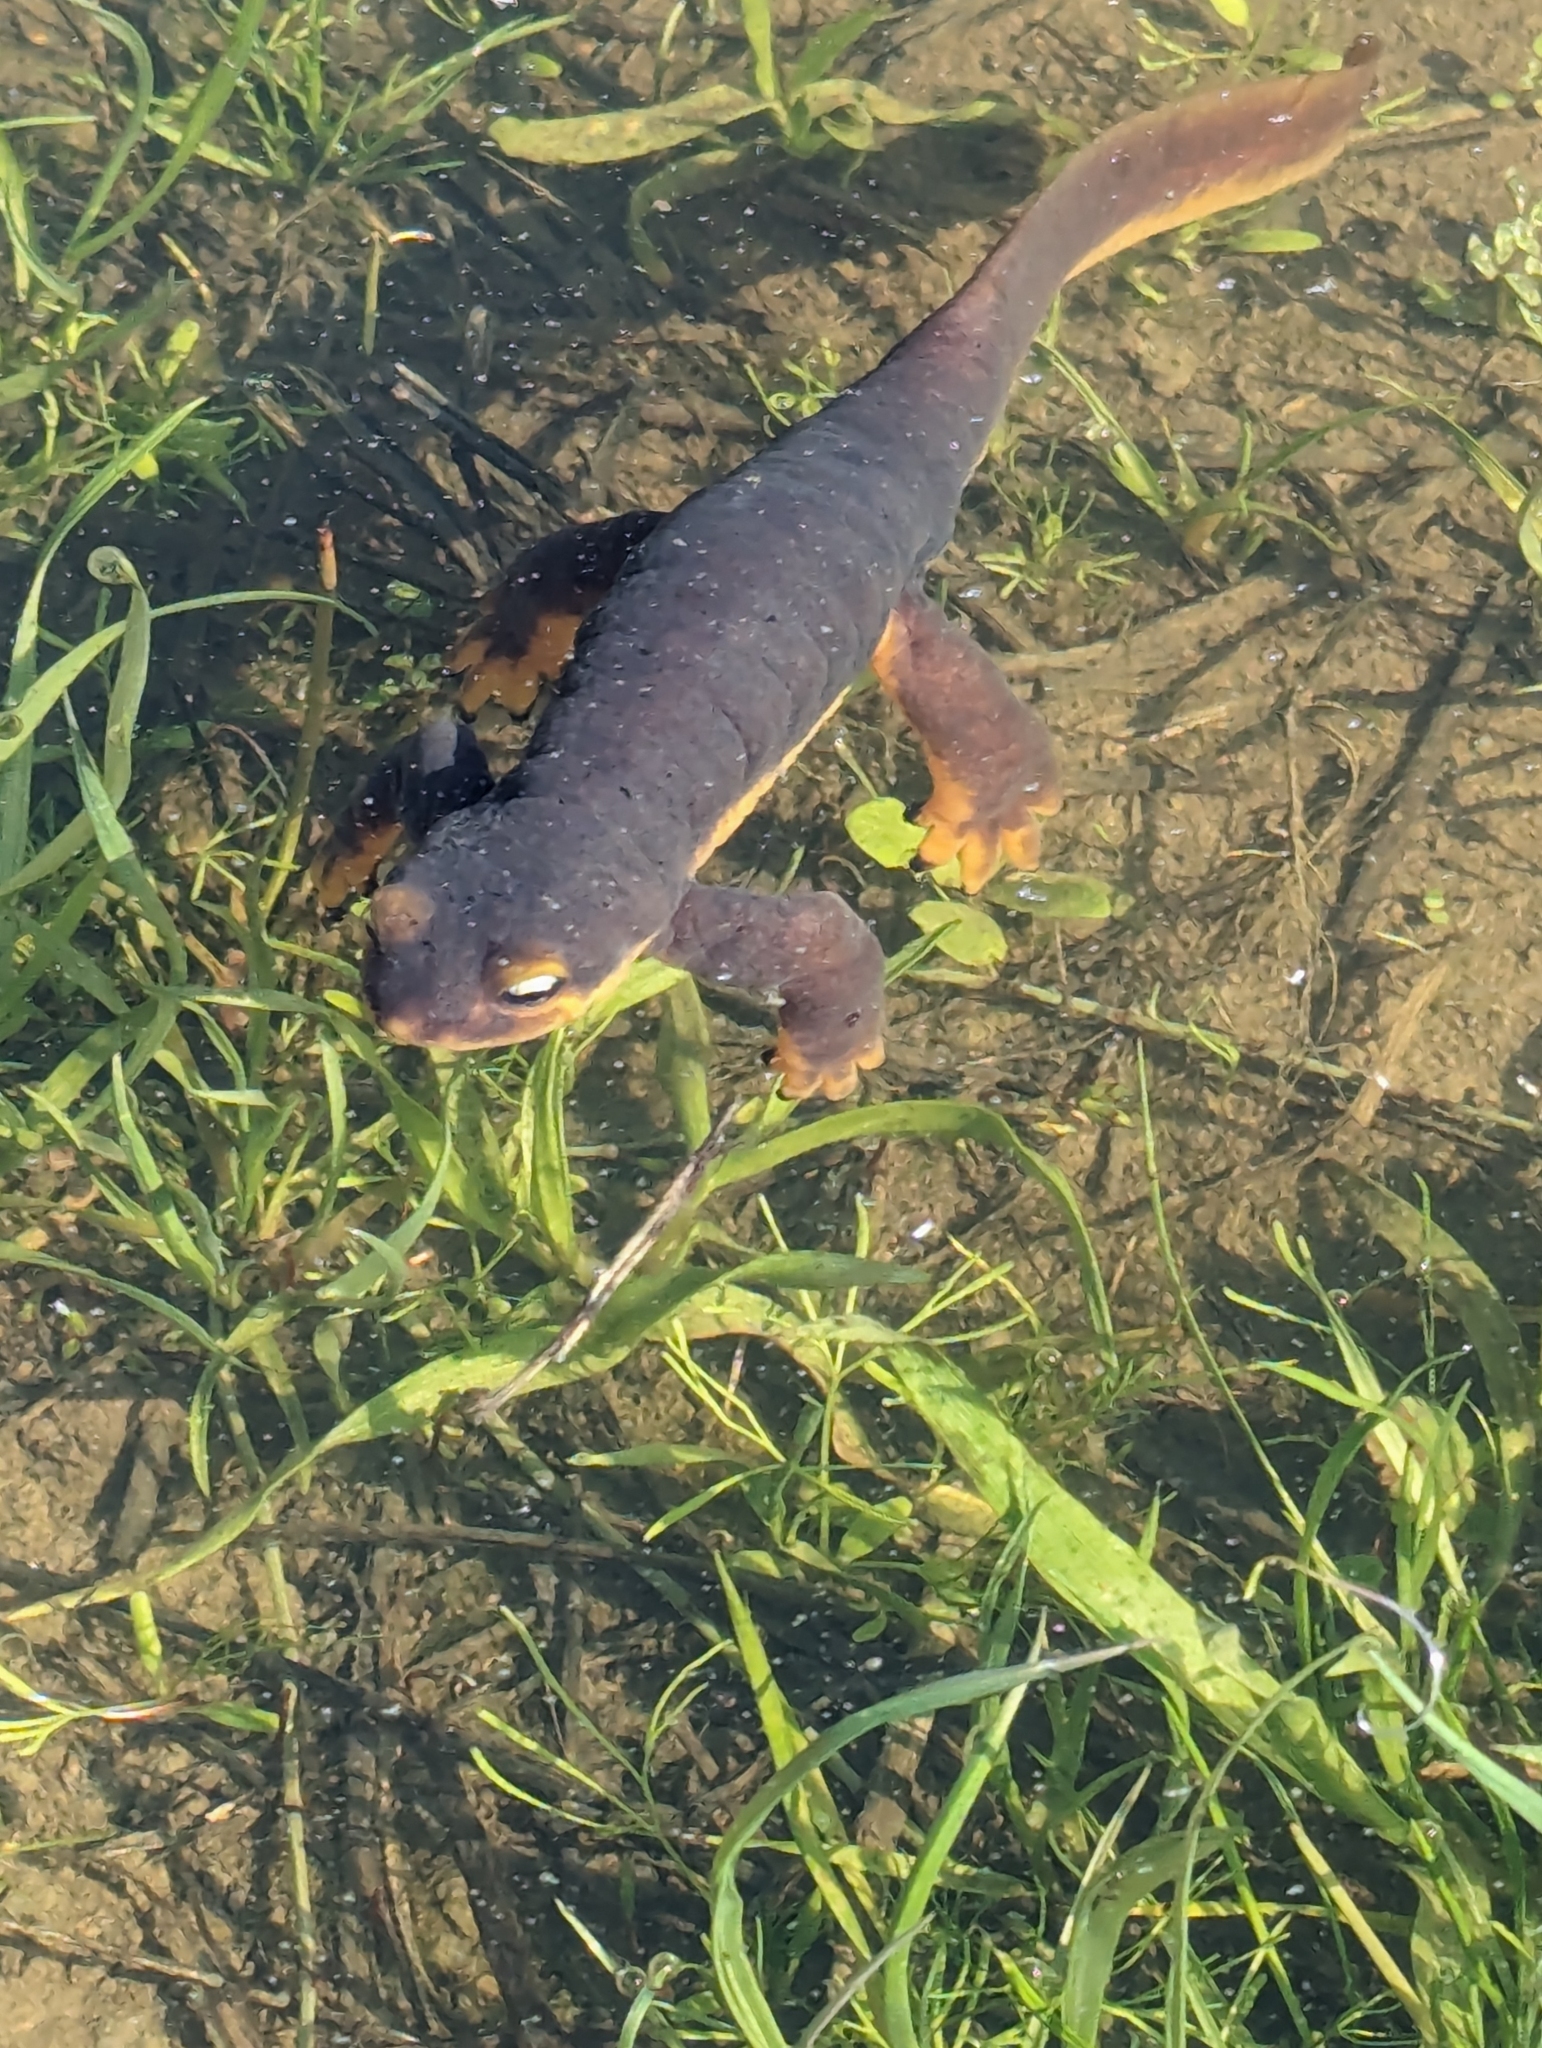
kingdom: Animalia
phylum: Chordata
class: Amphibia
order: Caudata
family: Salamandridae
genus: Taricha
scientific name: Taricha torosa
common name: California newt
